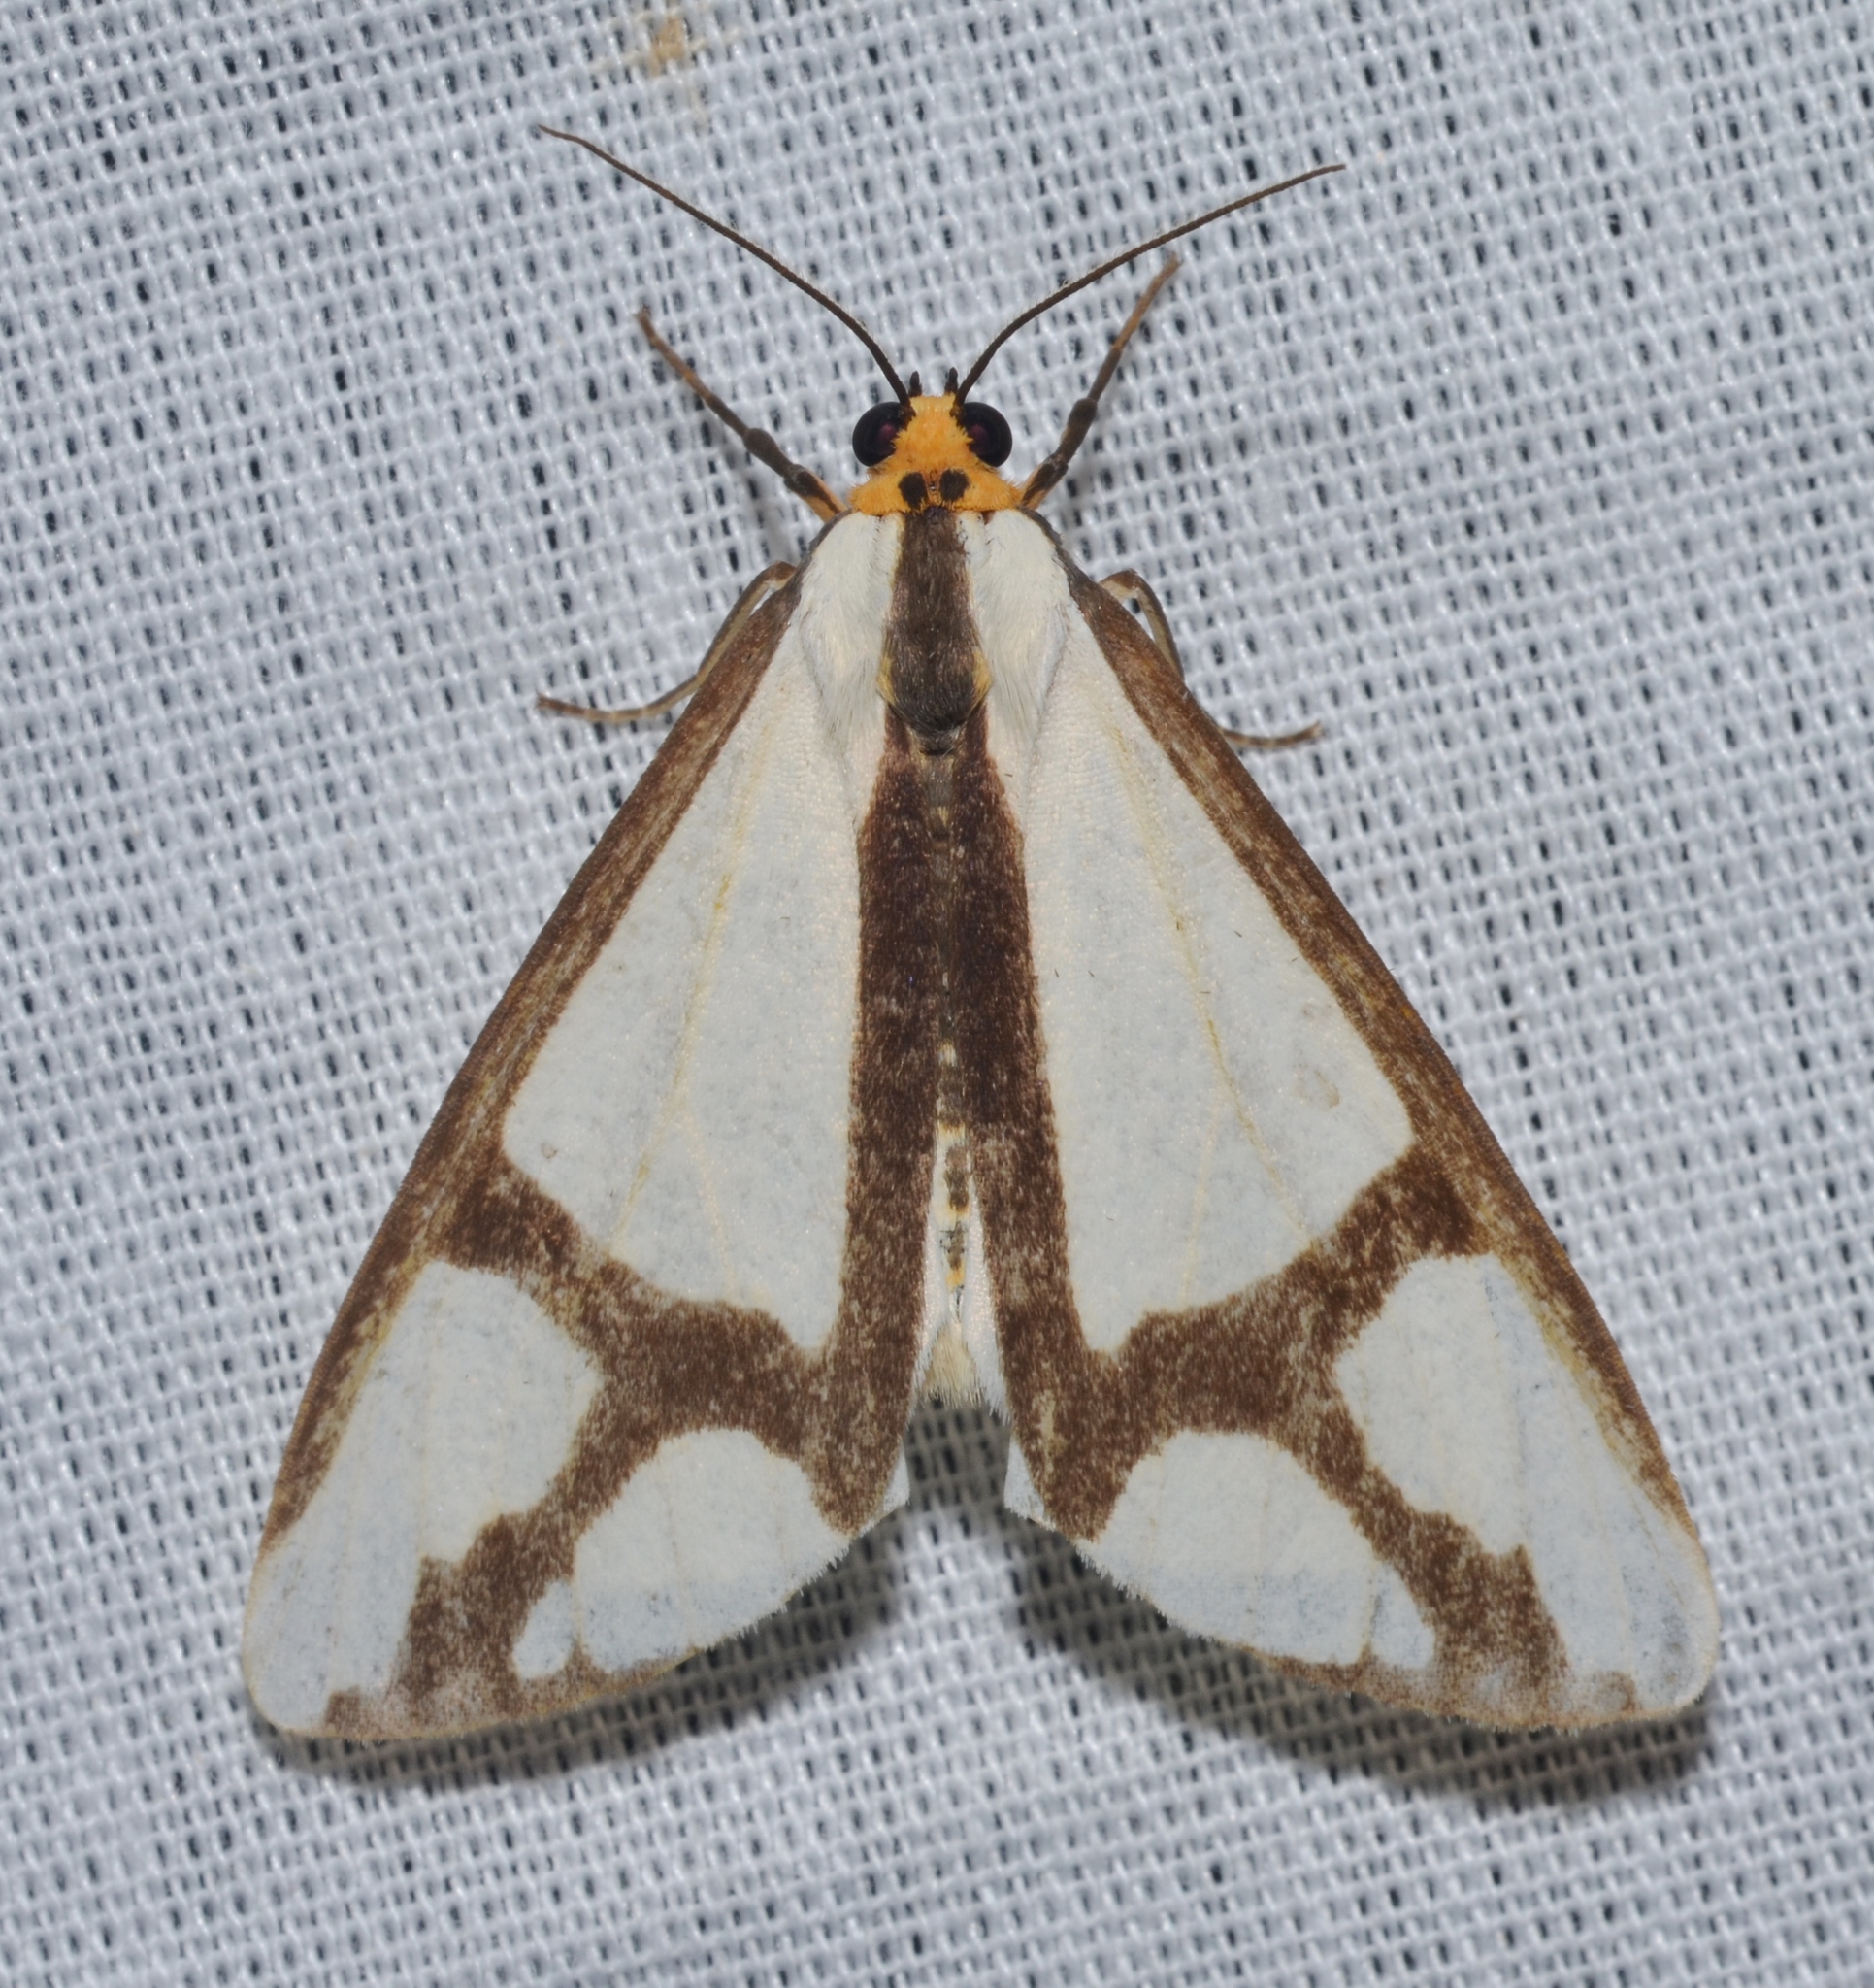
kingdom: Animalia
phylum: Arthropoda
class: Insecta
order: Lepidoptera
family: Erebidae
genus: Haploa
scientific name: Haploa contigua
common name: Neighbor moth
